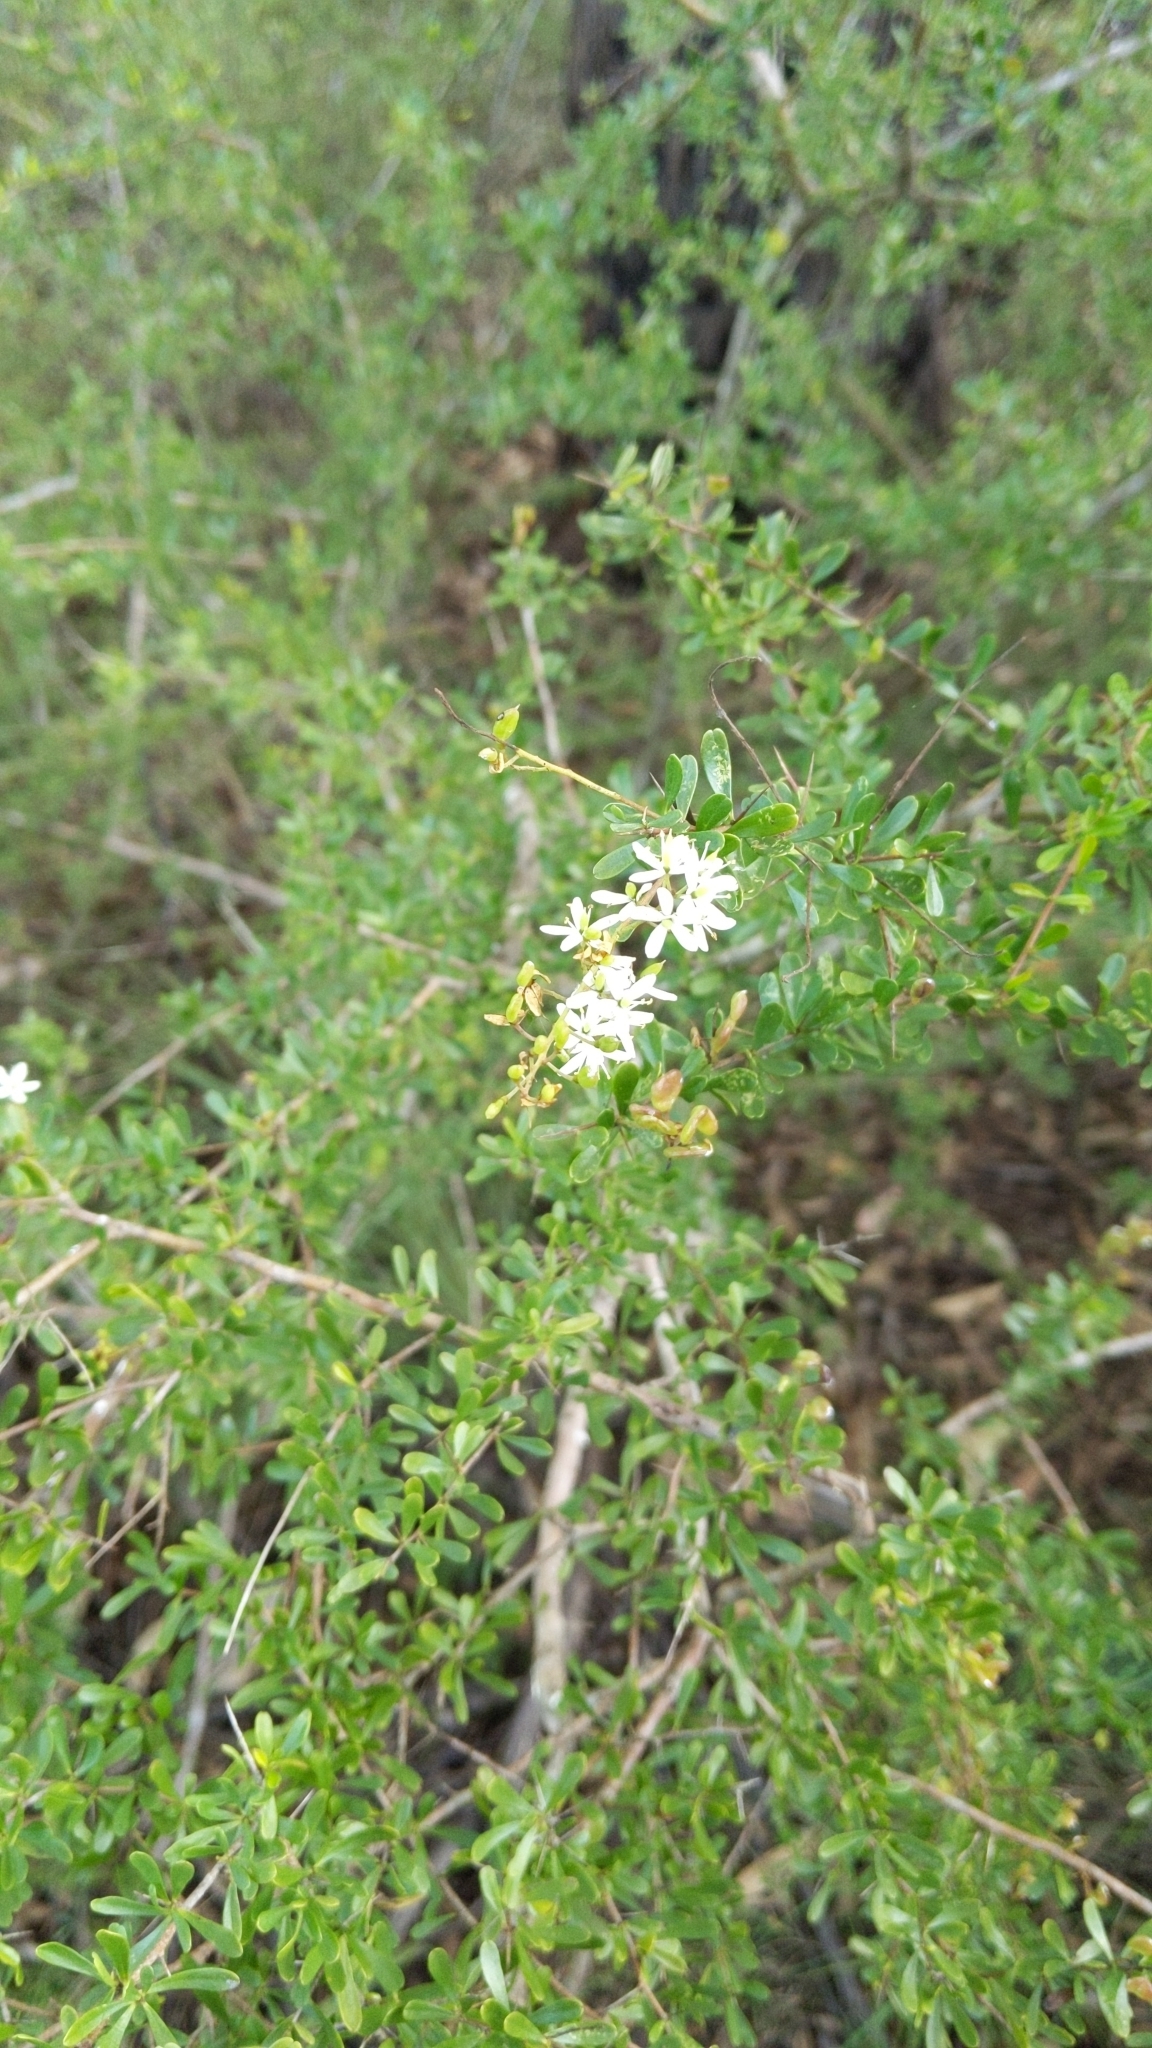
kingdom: Plantae
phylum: Tracheophyta
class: Magnoliopsida
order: Apiales
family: Pittosporaceae
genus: Bursaria
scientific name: Bursaria spinosa
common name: Australian blackthorn
